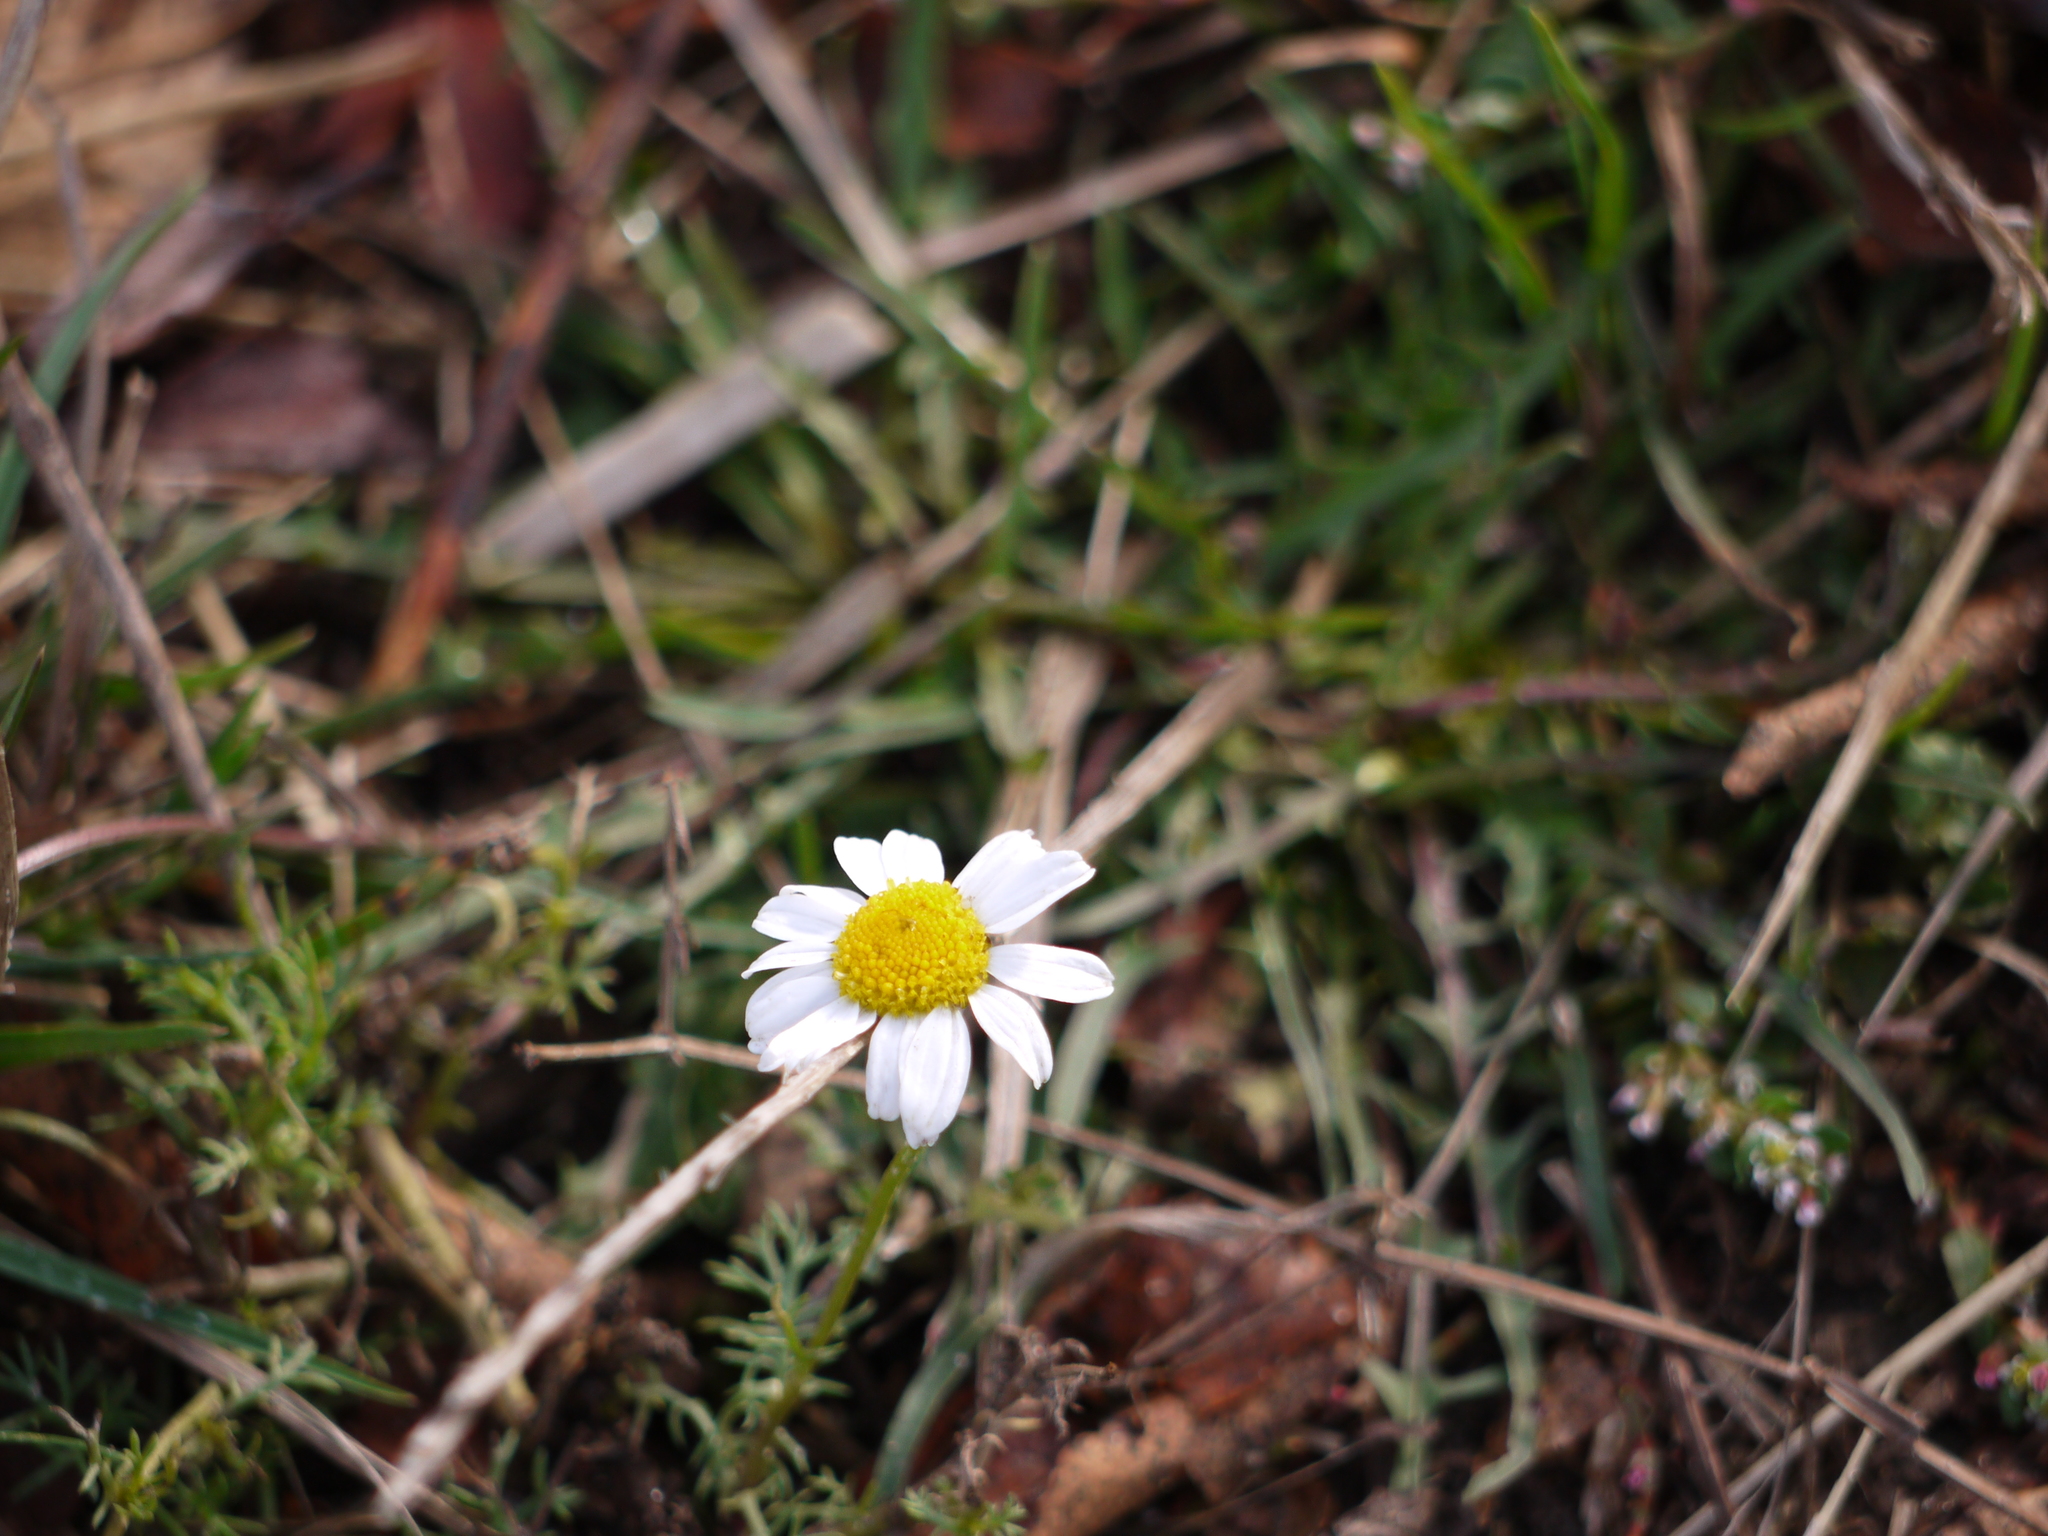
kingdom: Plantae
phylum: Tracheophyta
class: Magnoliopsida
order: Asterales
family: Asteraceae
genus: Matricaria
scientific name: Matricaria chamomilla
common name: Scented mayweed
